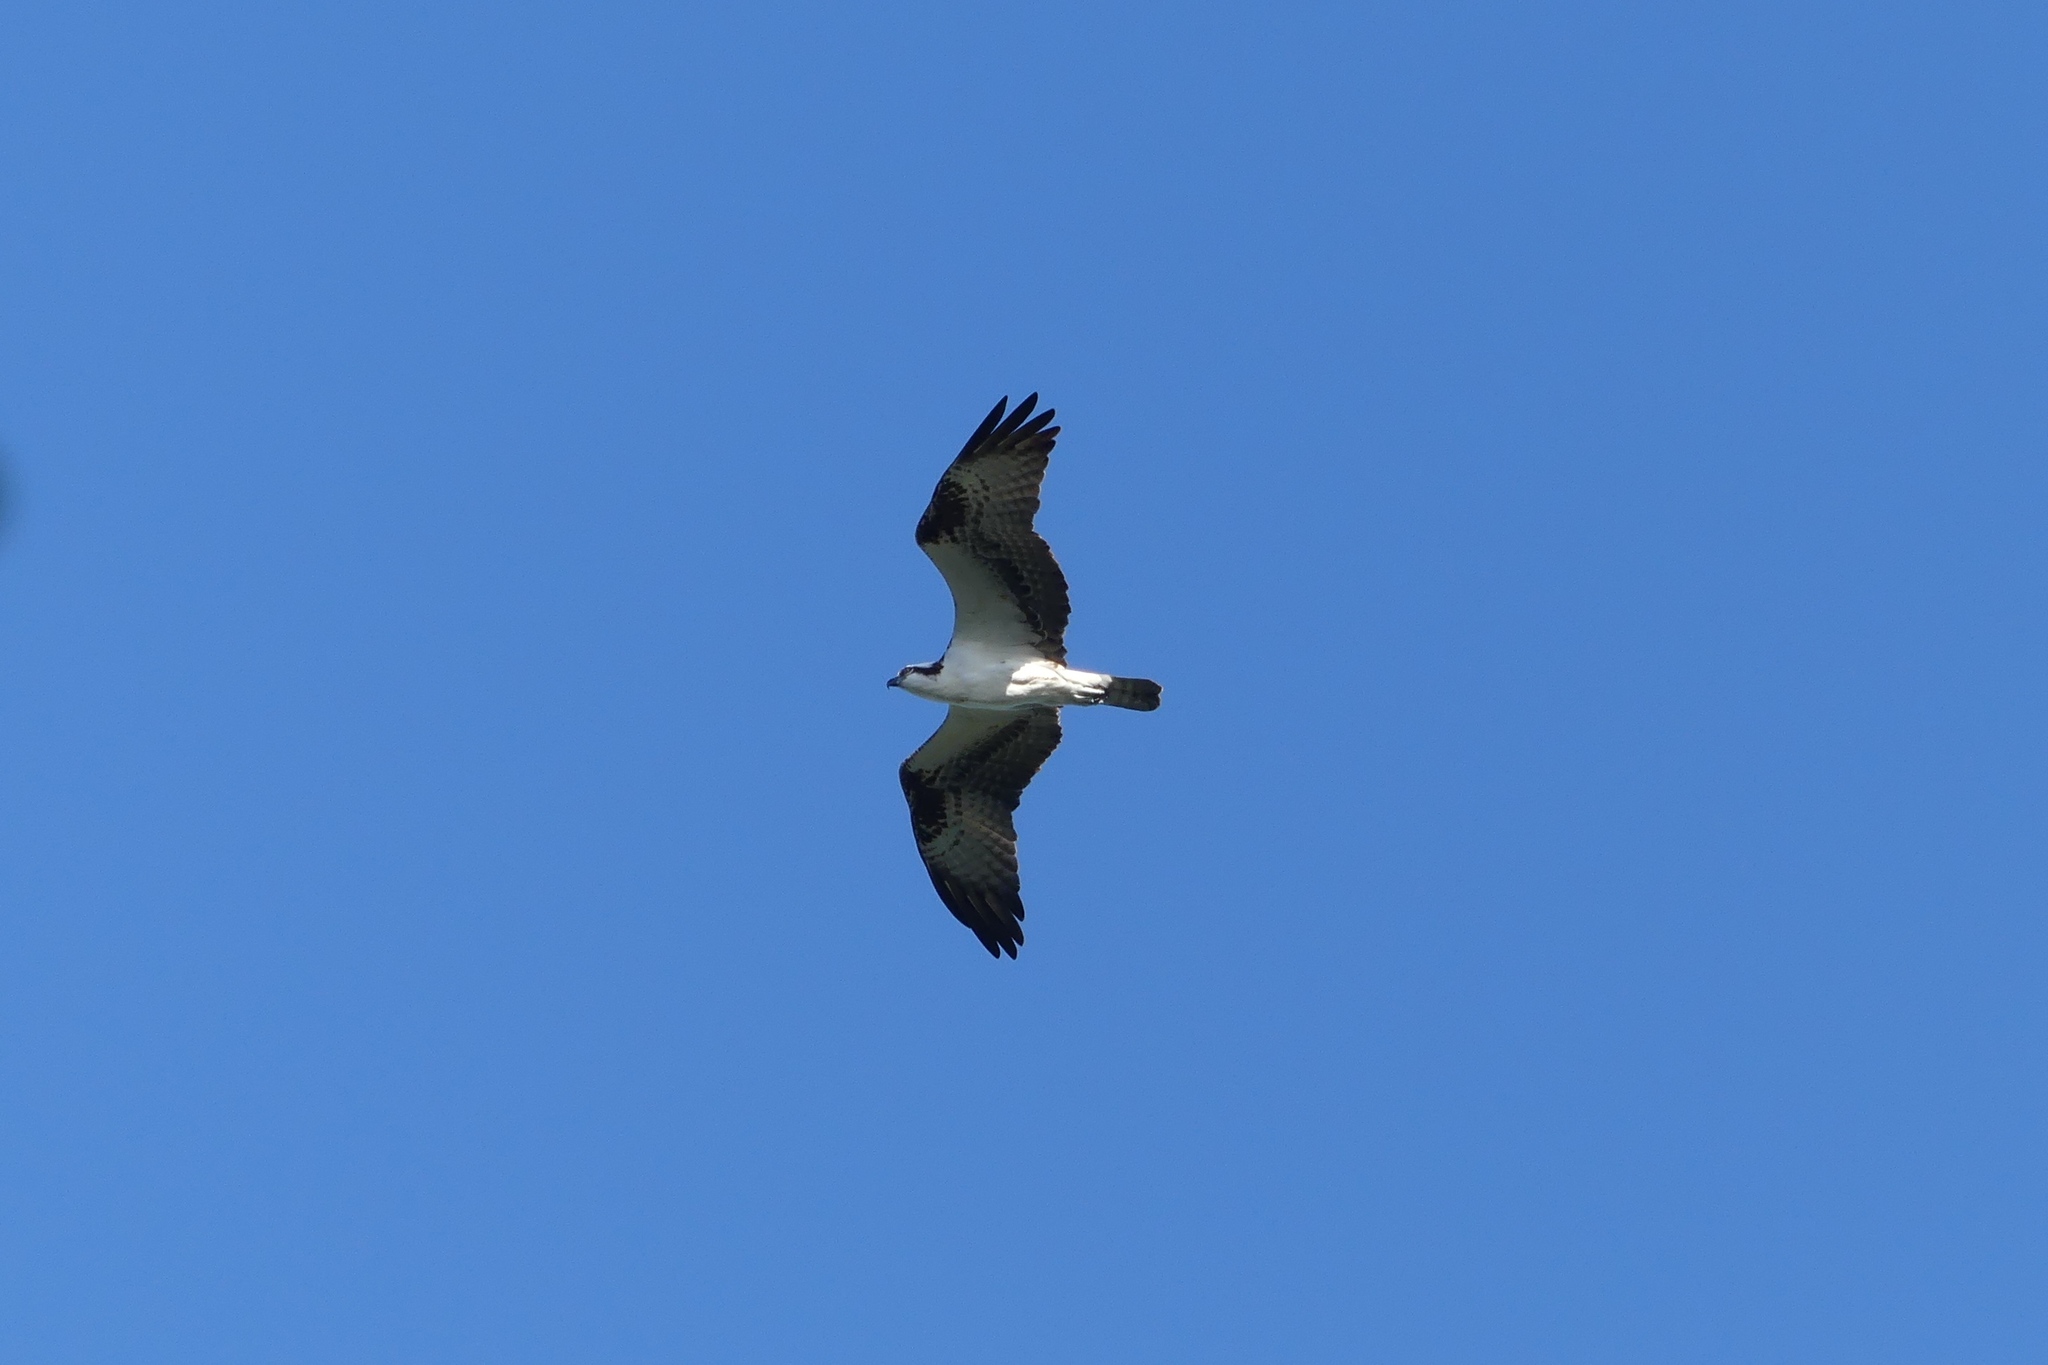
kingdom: Animalia
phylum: Chordata
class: Aves
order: Accipitriformes
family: Pandionidae
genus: Pandion
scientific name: Pandion haliaetus
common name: Osprey
